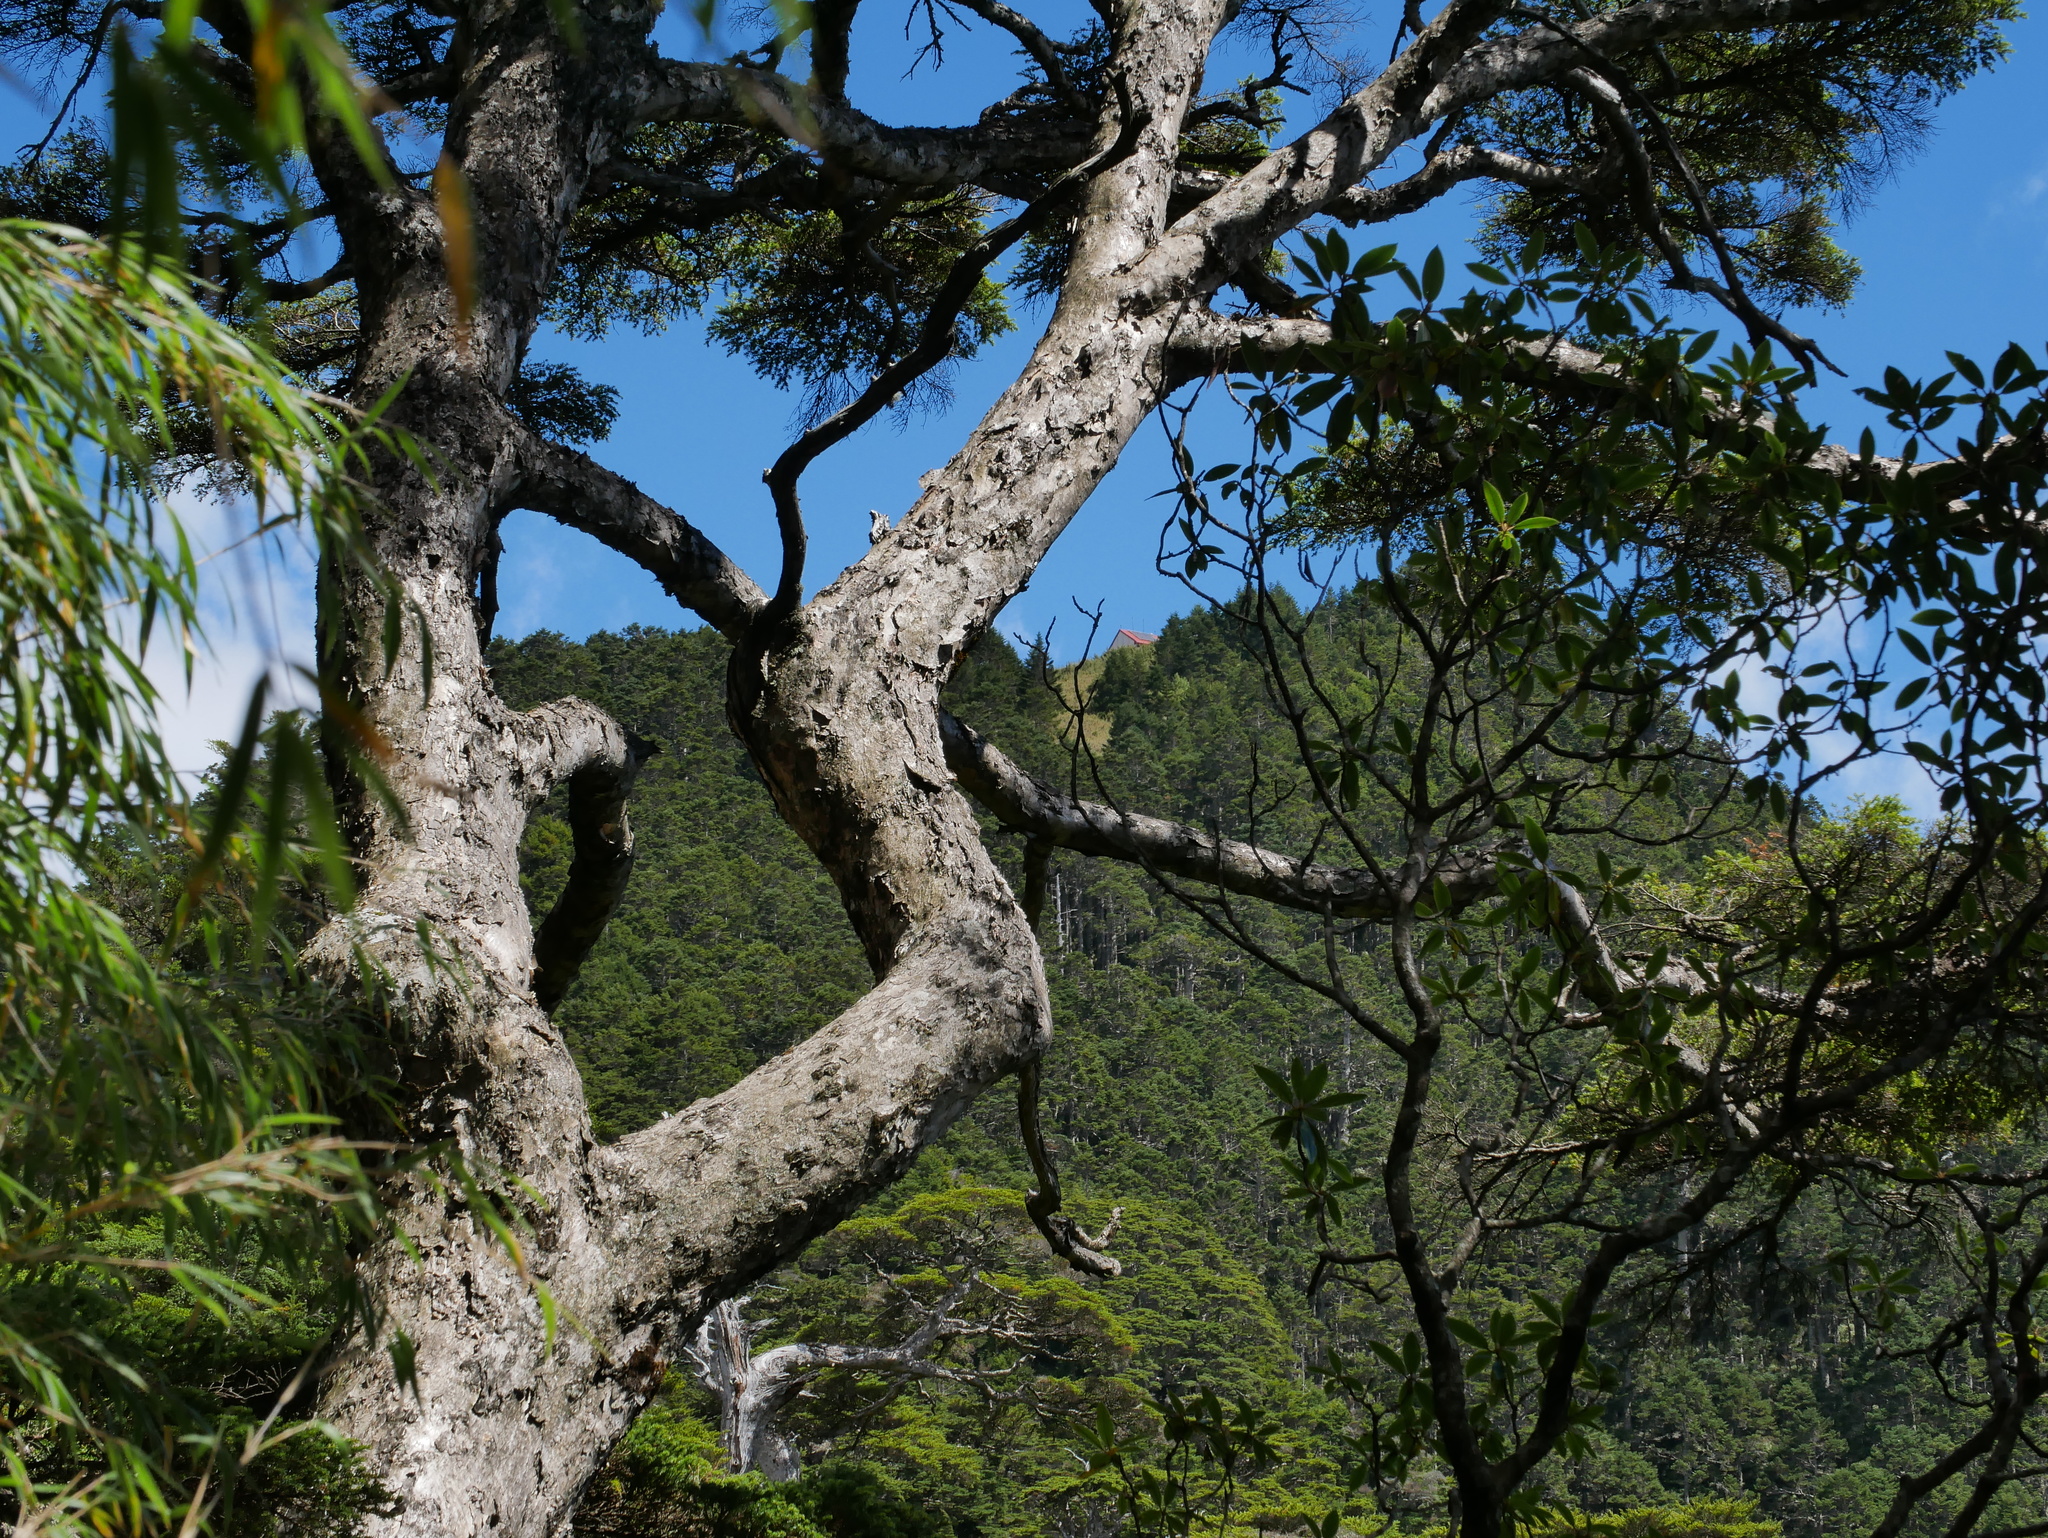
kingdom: Plantae
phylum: Tracheophyta
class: Pinopsida
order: Pinales
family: Pinaceae
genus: Tsuga
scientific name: Tsuga chinensis
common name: Chinese hemlock
